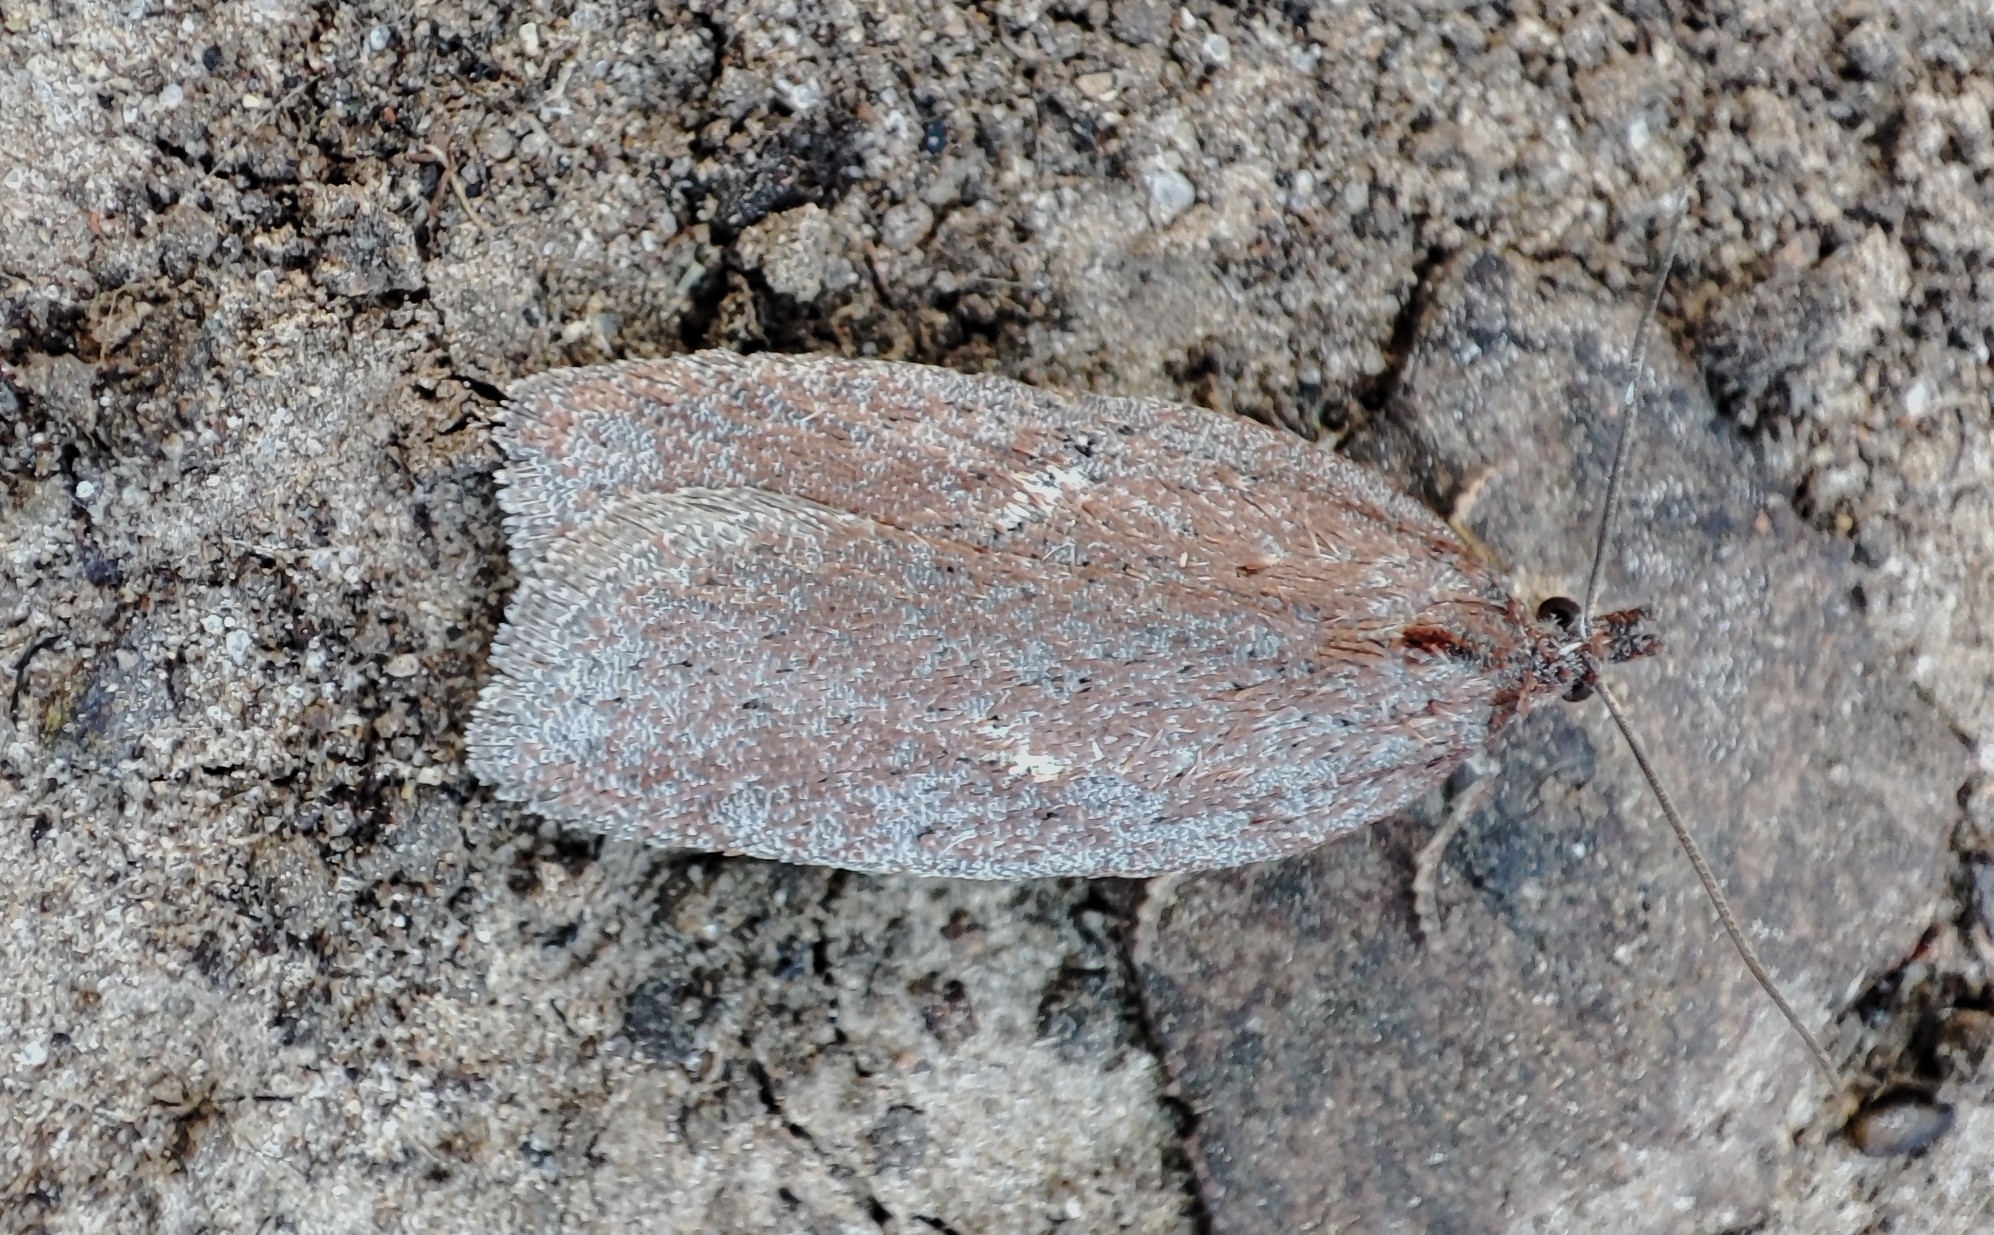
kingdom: Animalia
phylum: Arthropoda
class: Insecta
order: Lepidoptera
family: Tortricidae
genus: Acleris
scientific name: Acleris lipsiana
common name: Northern button
